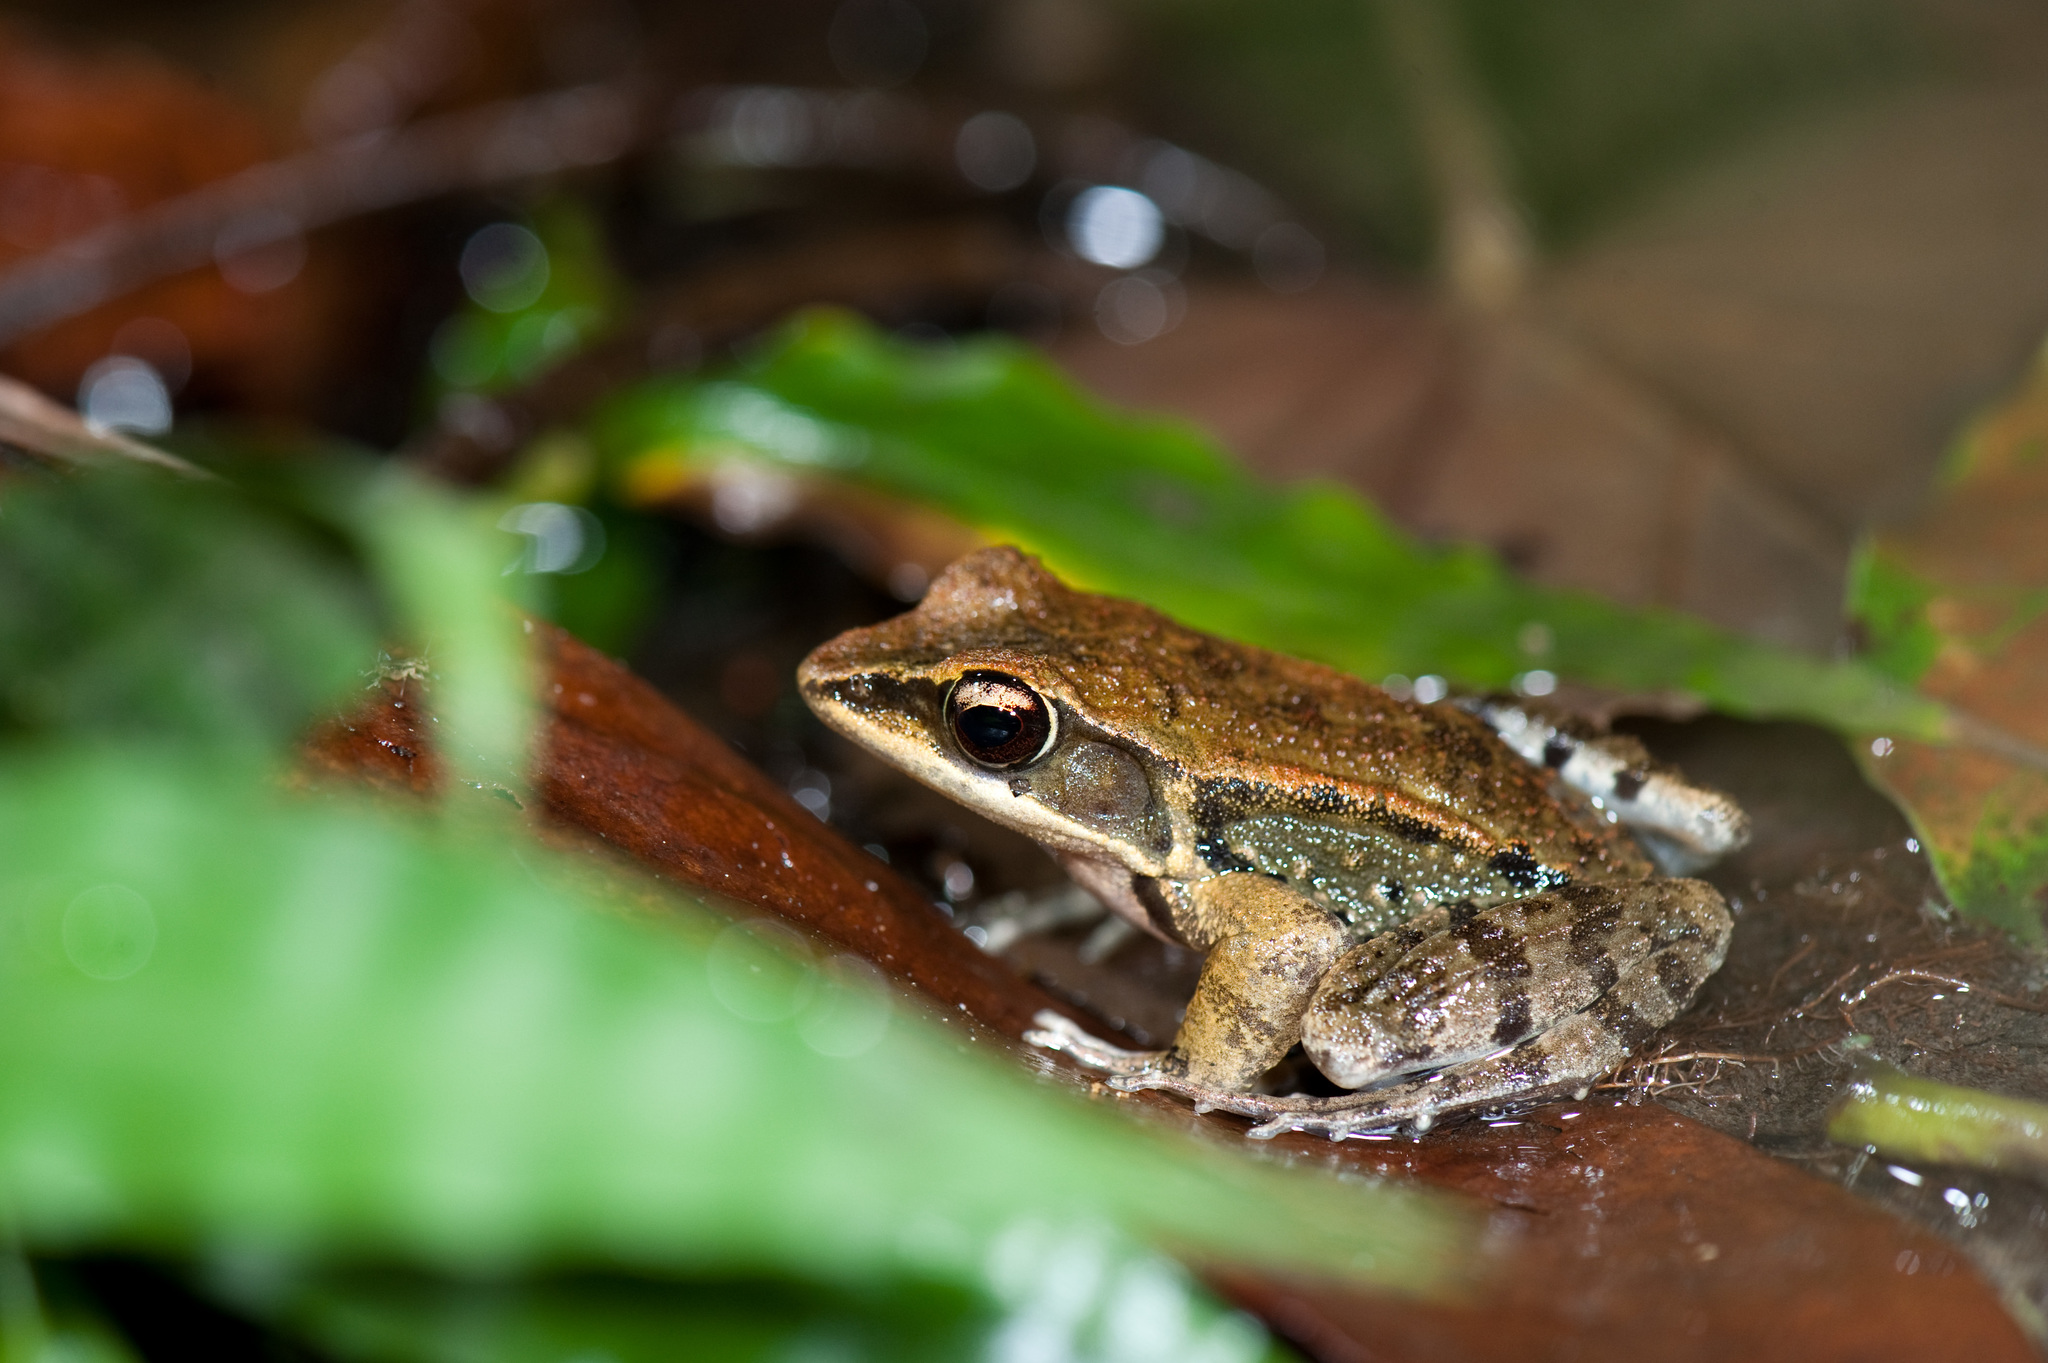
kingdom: Animalia
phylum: Chordata
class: Amphibia
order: Anura
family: Ranidae
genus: Hylarana
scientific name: Hylarana latouchii
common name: Broad-folded frog
